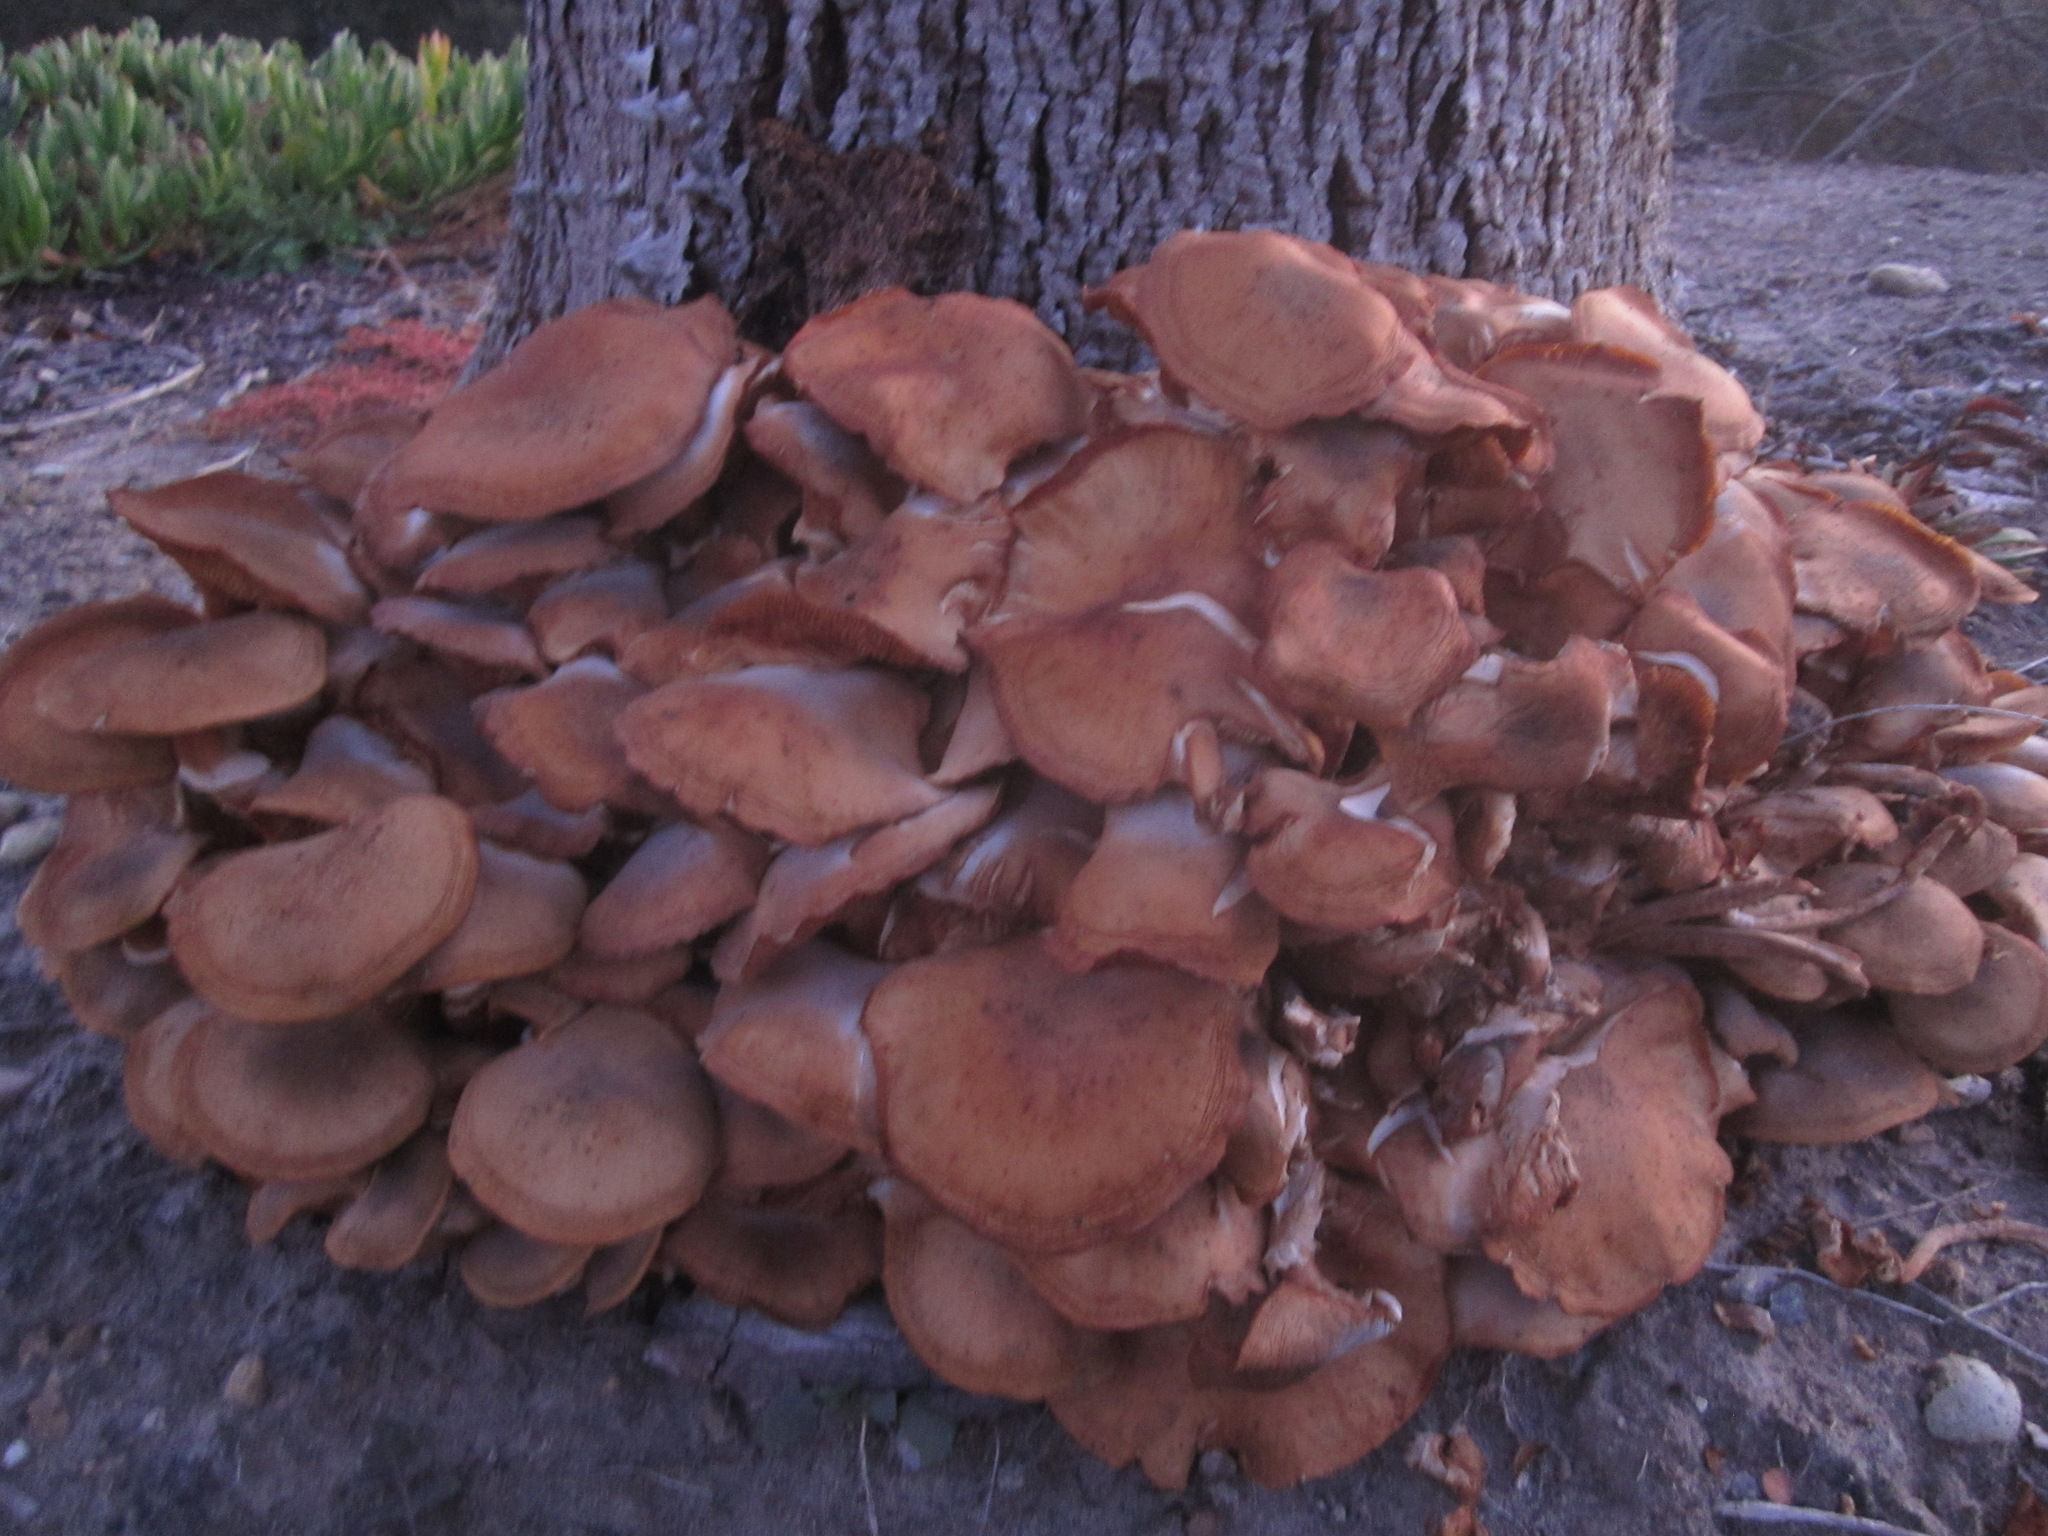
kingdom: Fungi
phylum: Basidiomycota
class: Agaricomycetes
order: Agaricales
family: Physalacriaceae
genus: Armillaria
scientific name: Armillaria mellea
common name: Honey fungus
